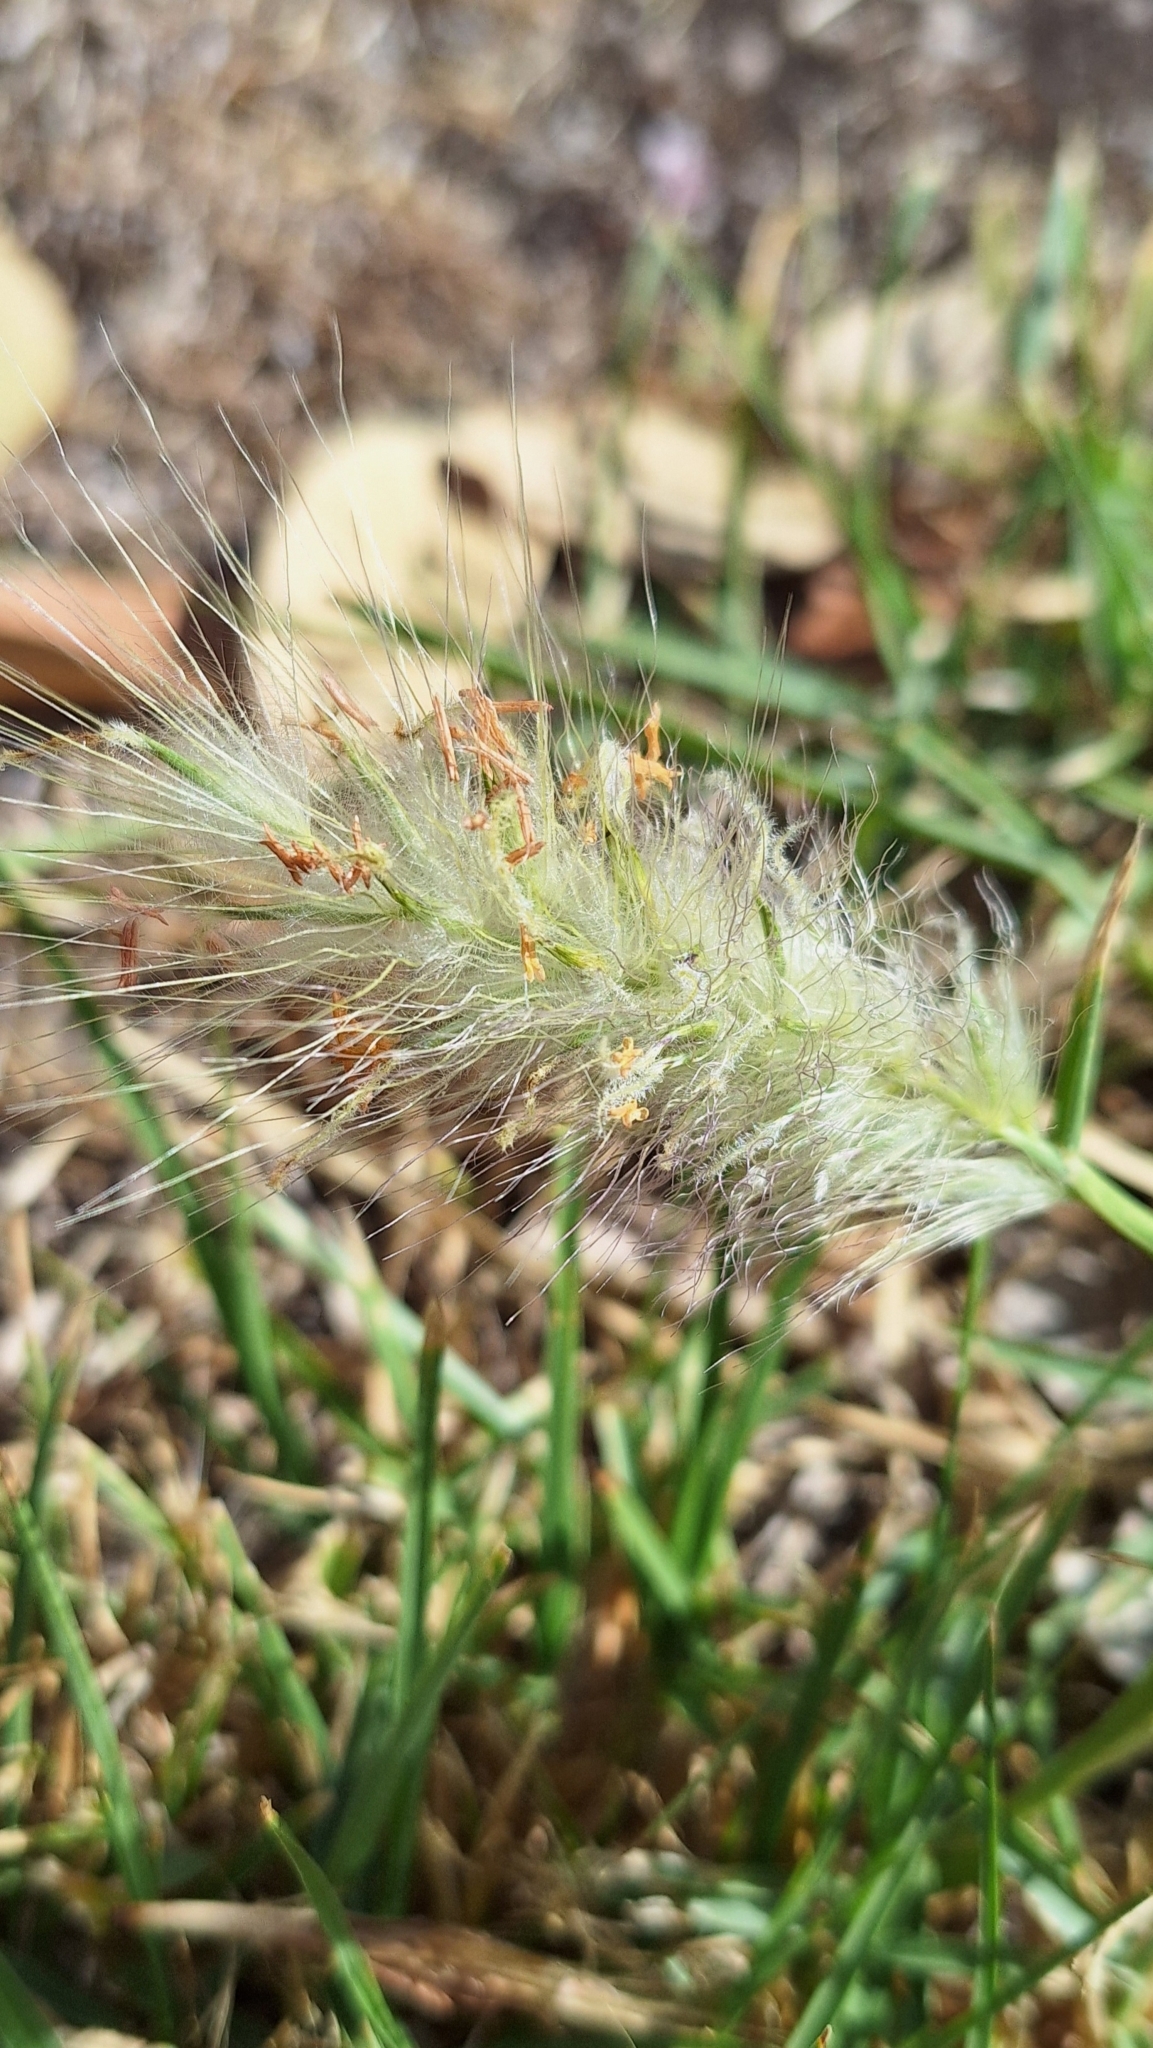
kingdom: Plantae
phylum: Tracheophyta
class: Liliopsida
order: Poales
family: Poaceae
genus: Cenchrus
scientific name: Cenchrus longisetus
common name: Feathertop
